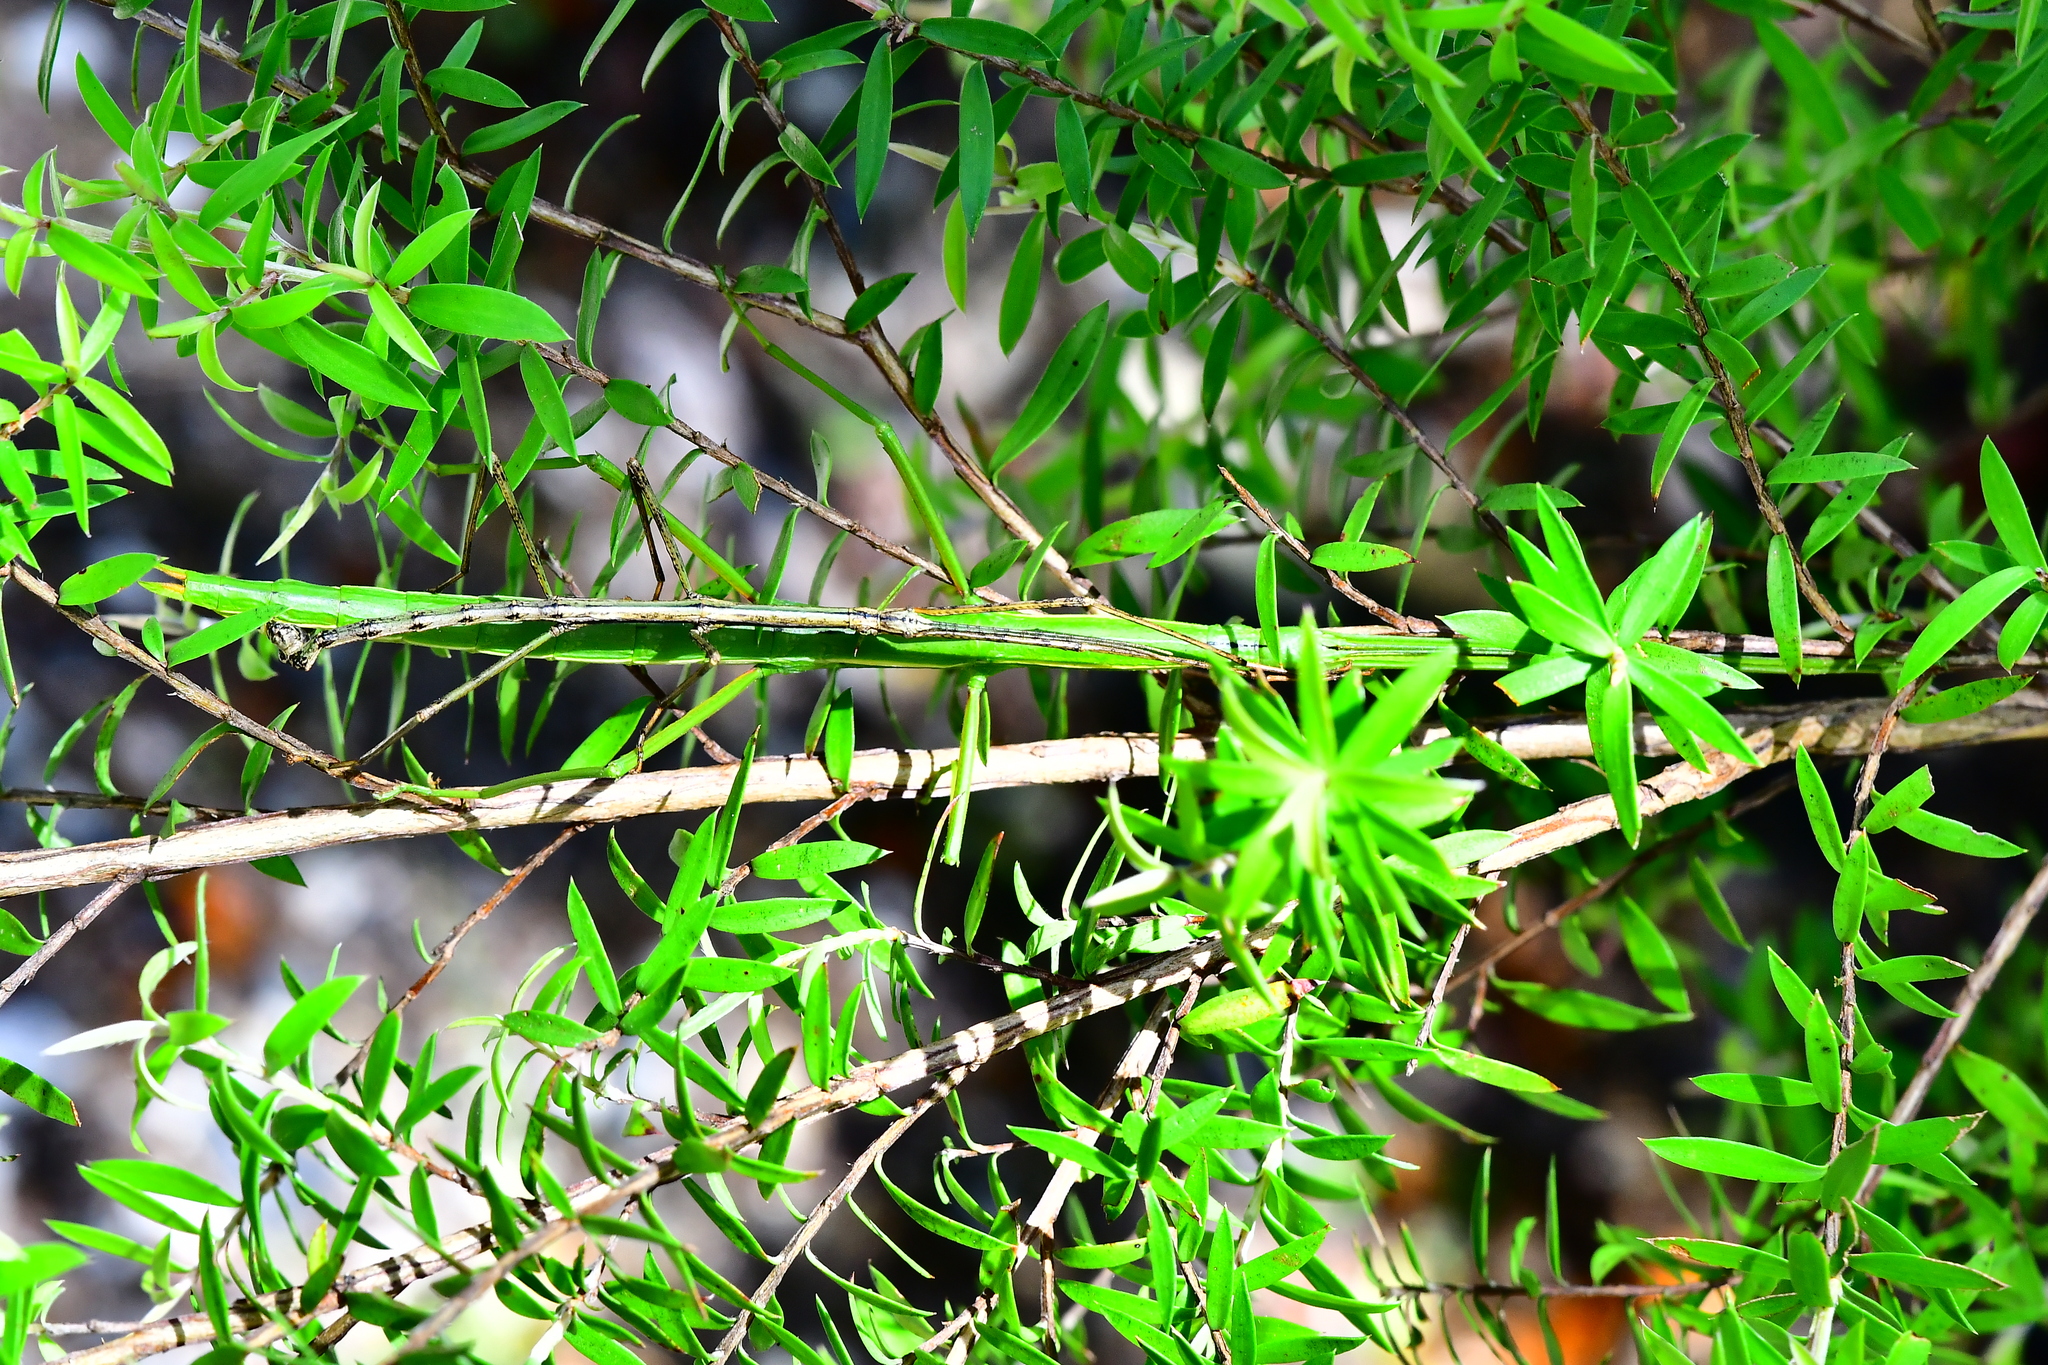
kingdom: Animalia
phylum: Arthropoda
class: Insecta
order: Phasmida
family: Phasmatidae
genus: Clitarchus
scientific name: Clitarchus hookeri
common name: Smooth stick insect
